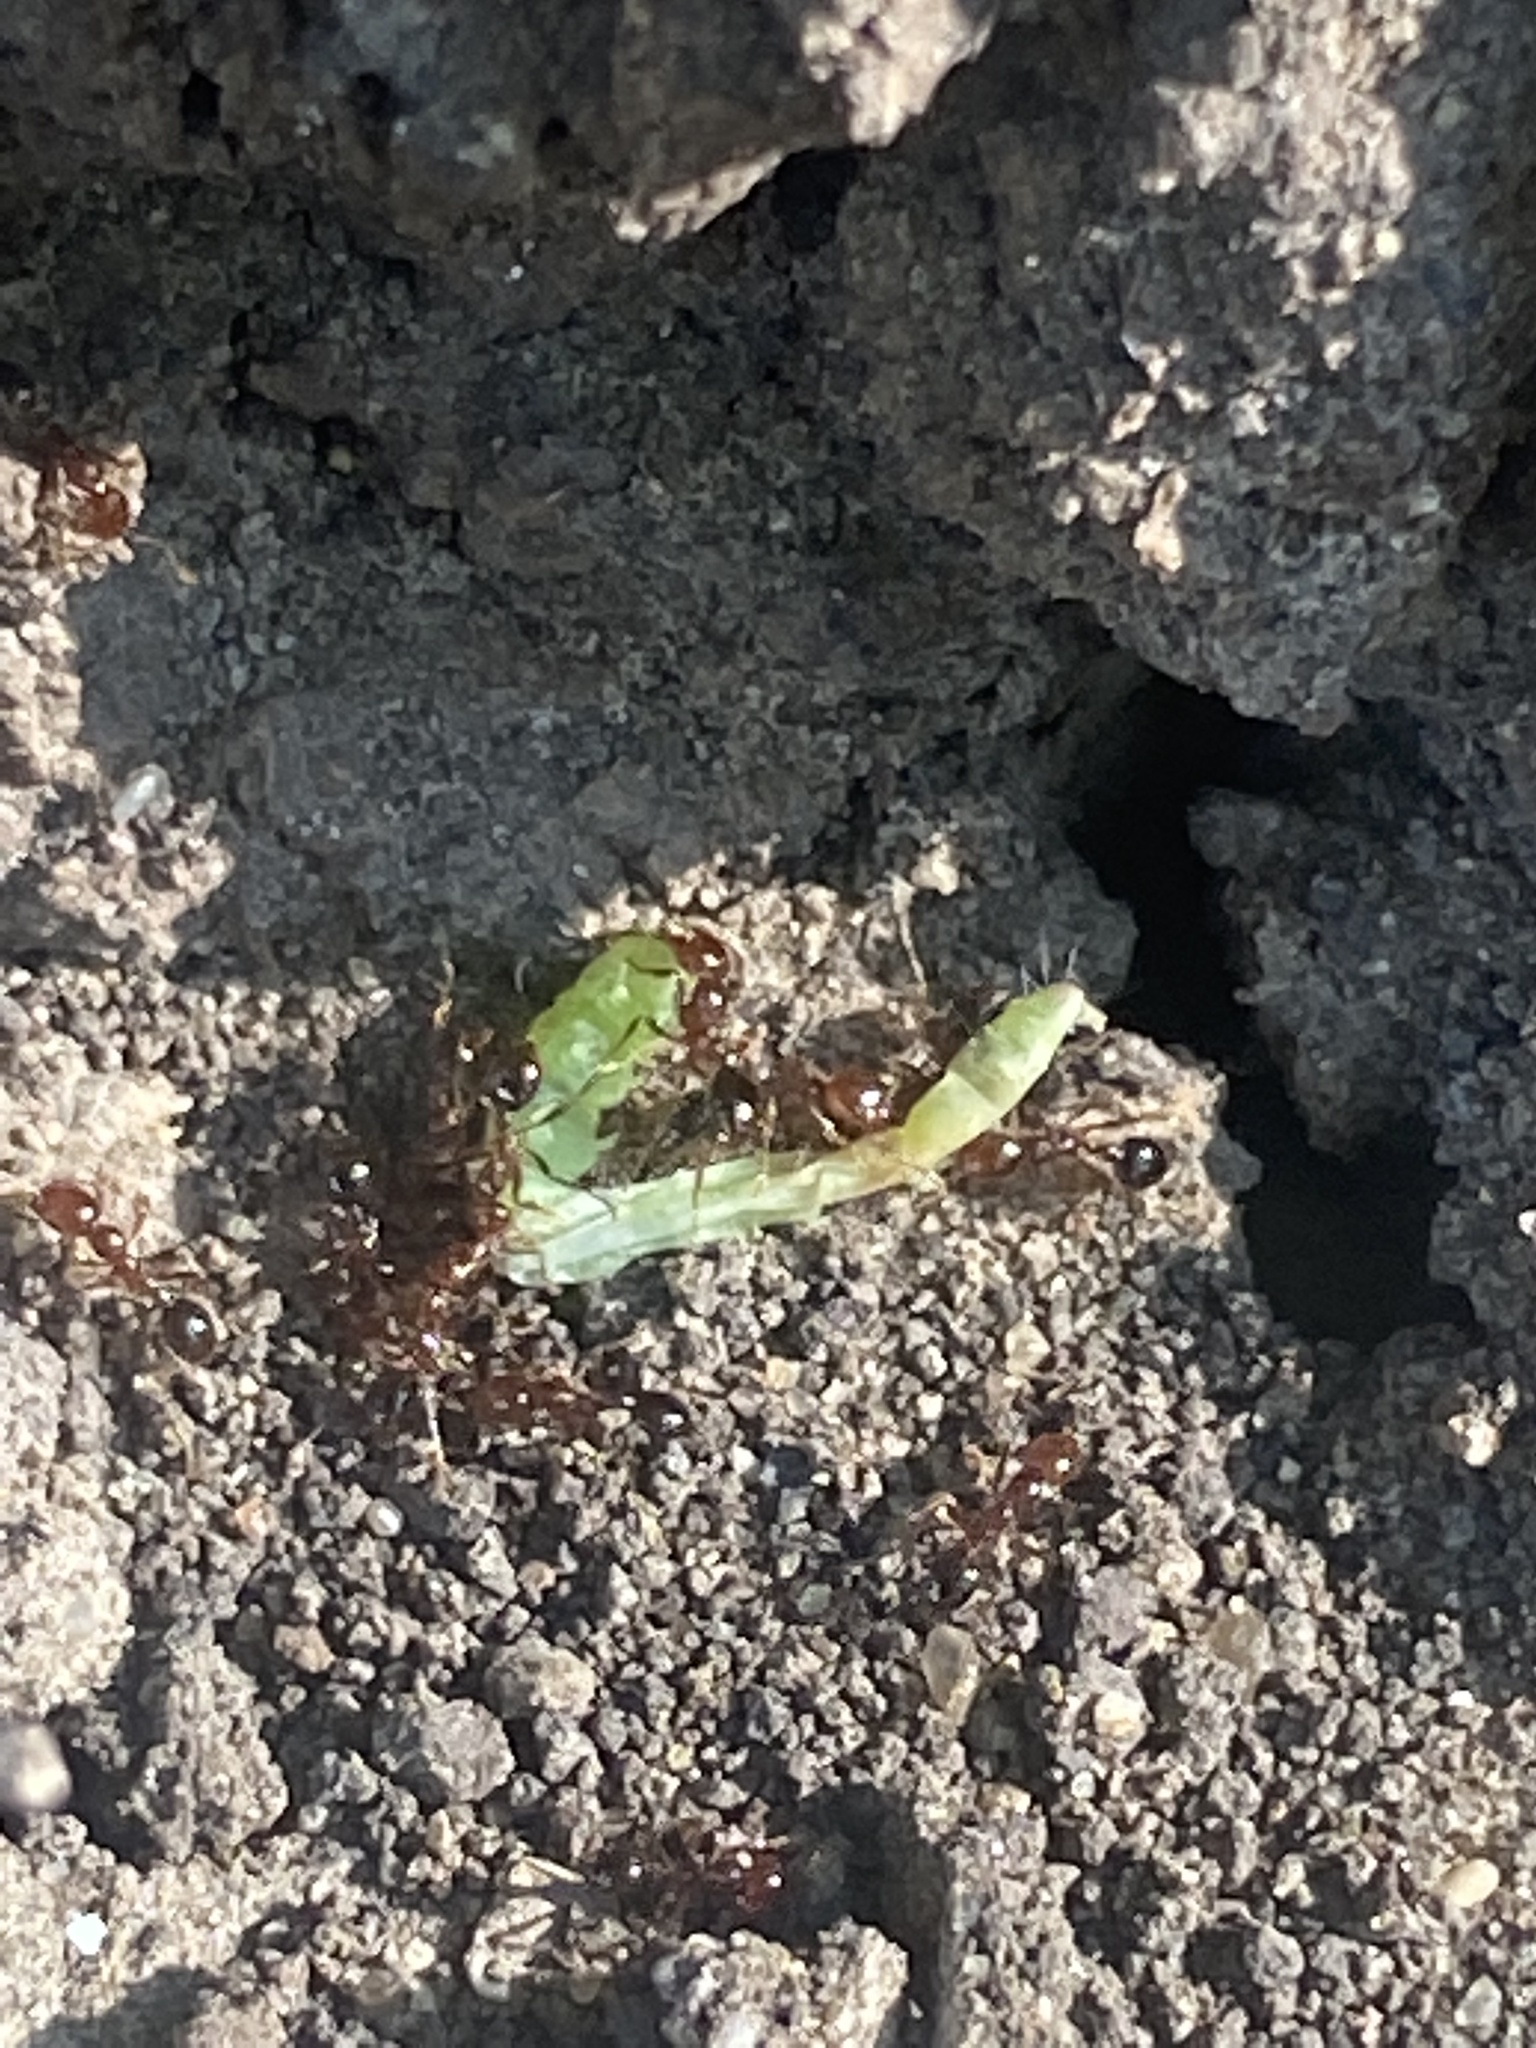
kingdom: Animalia
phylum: Arthropoda
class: Insecta
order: Hymenoptera
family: Formicidae
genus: Solenopsis
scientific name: Solenopsis invicta
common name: Red imported fire ant
